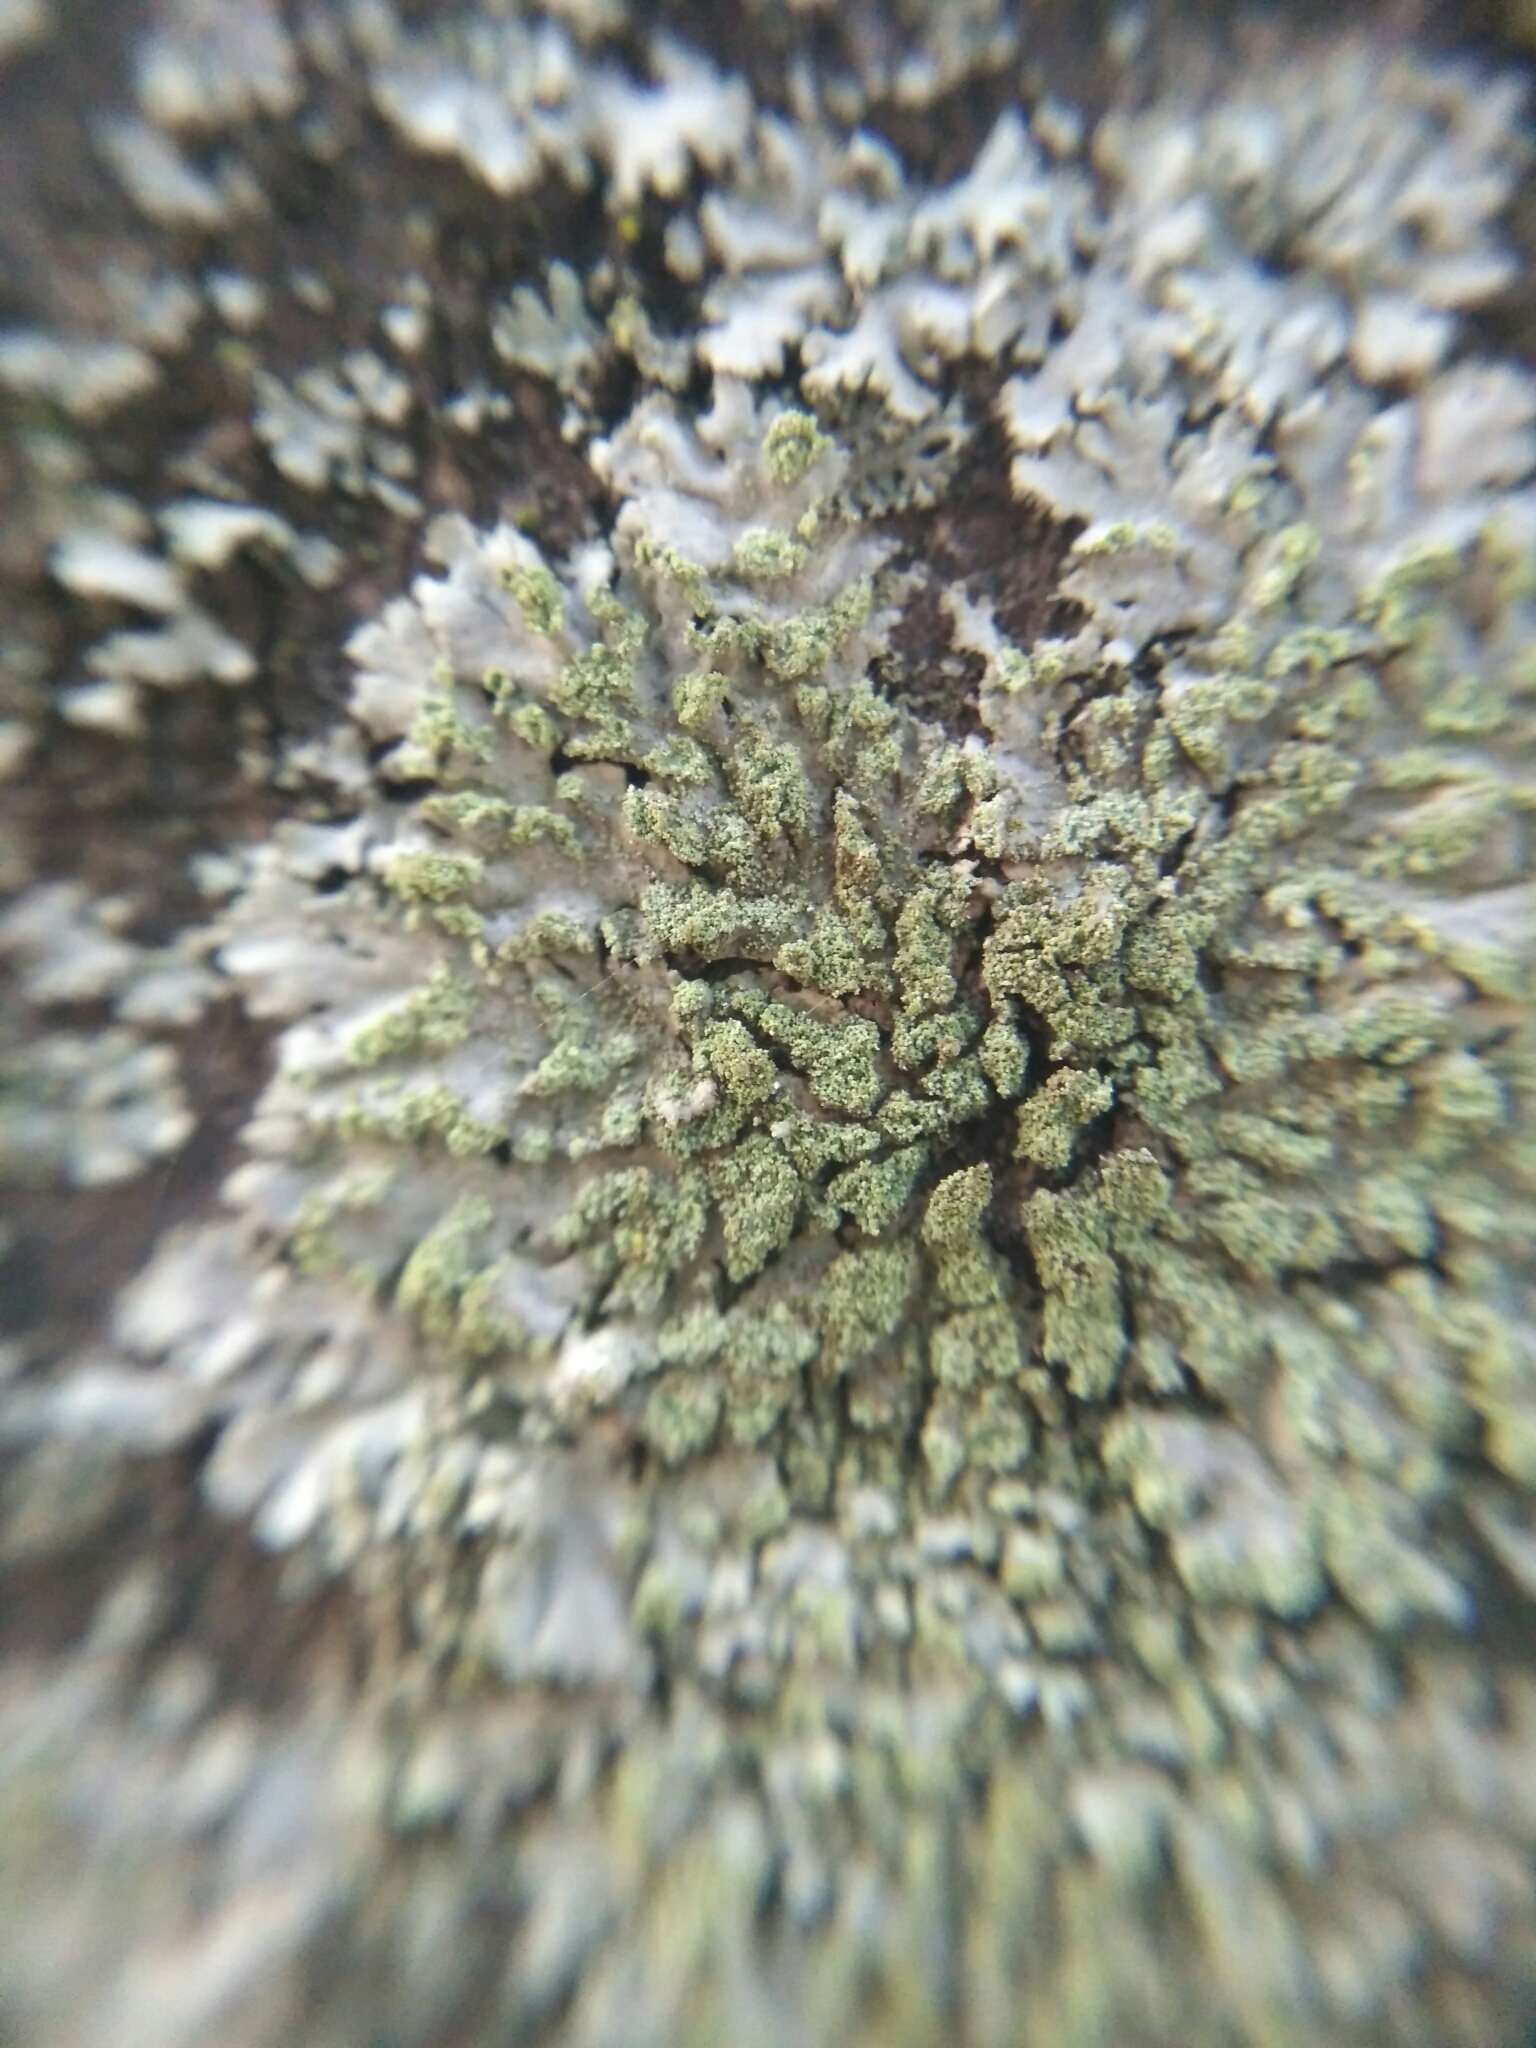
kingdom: Fungi
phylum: Ascomycota
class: Lecanoromycetes
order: Caliciales
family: Physciaceae
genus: Phaeophyscia
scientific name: Phaeophyscia orbicularis
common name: Mealy shadow lichen
